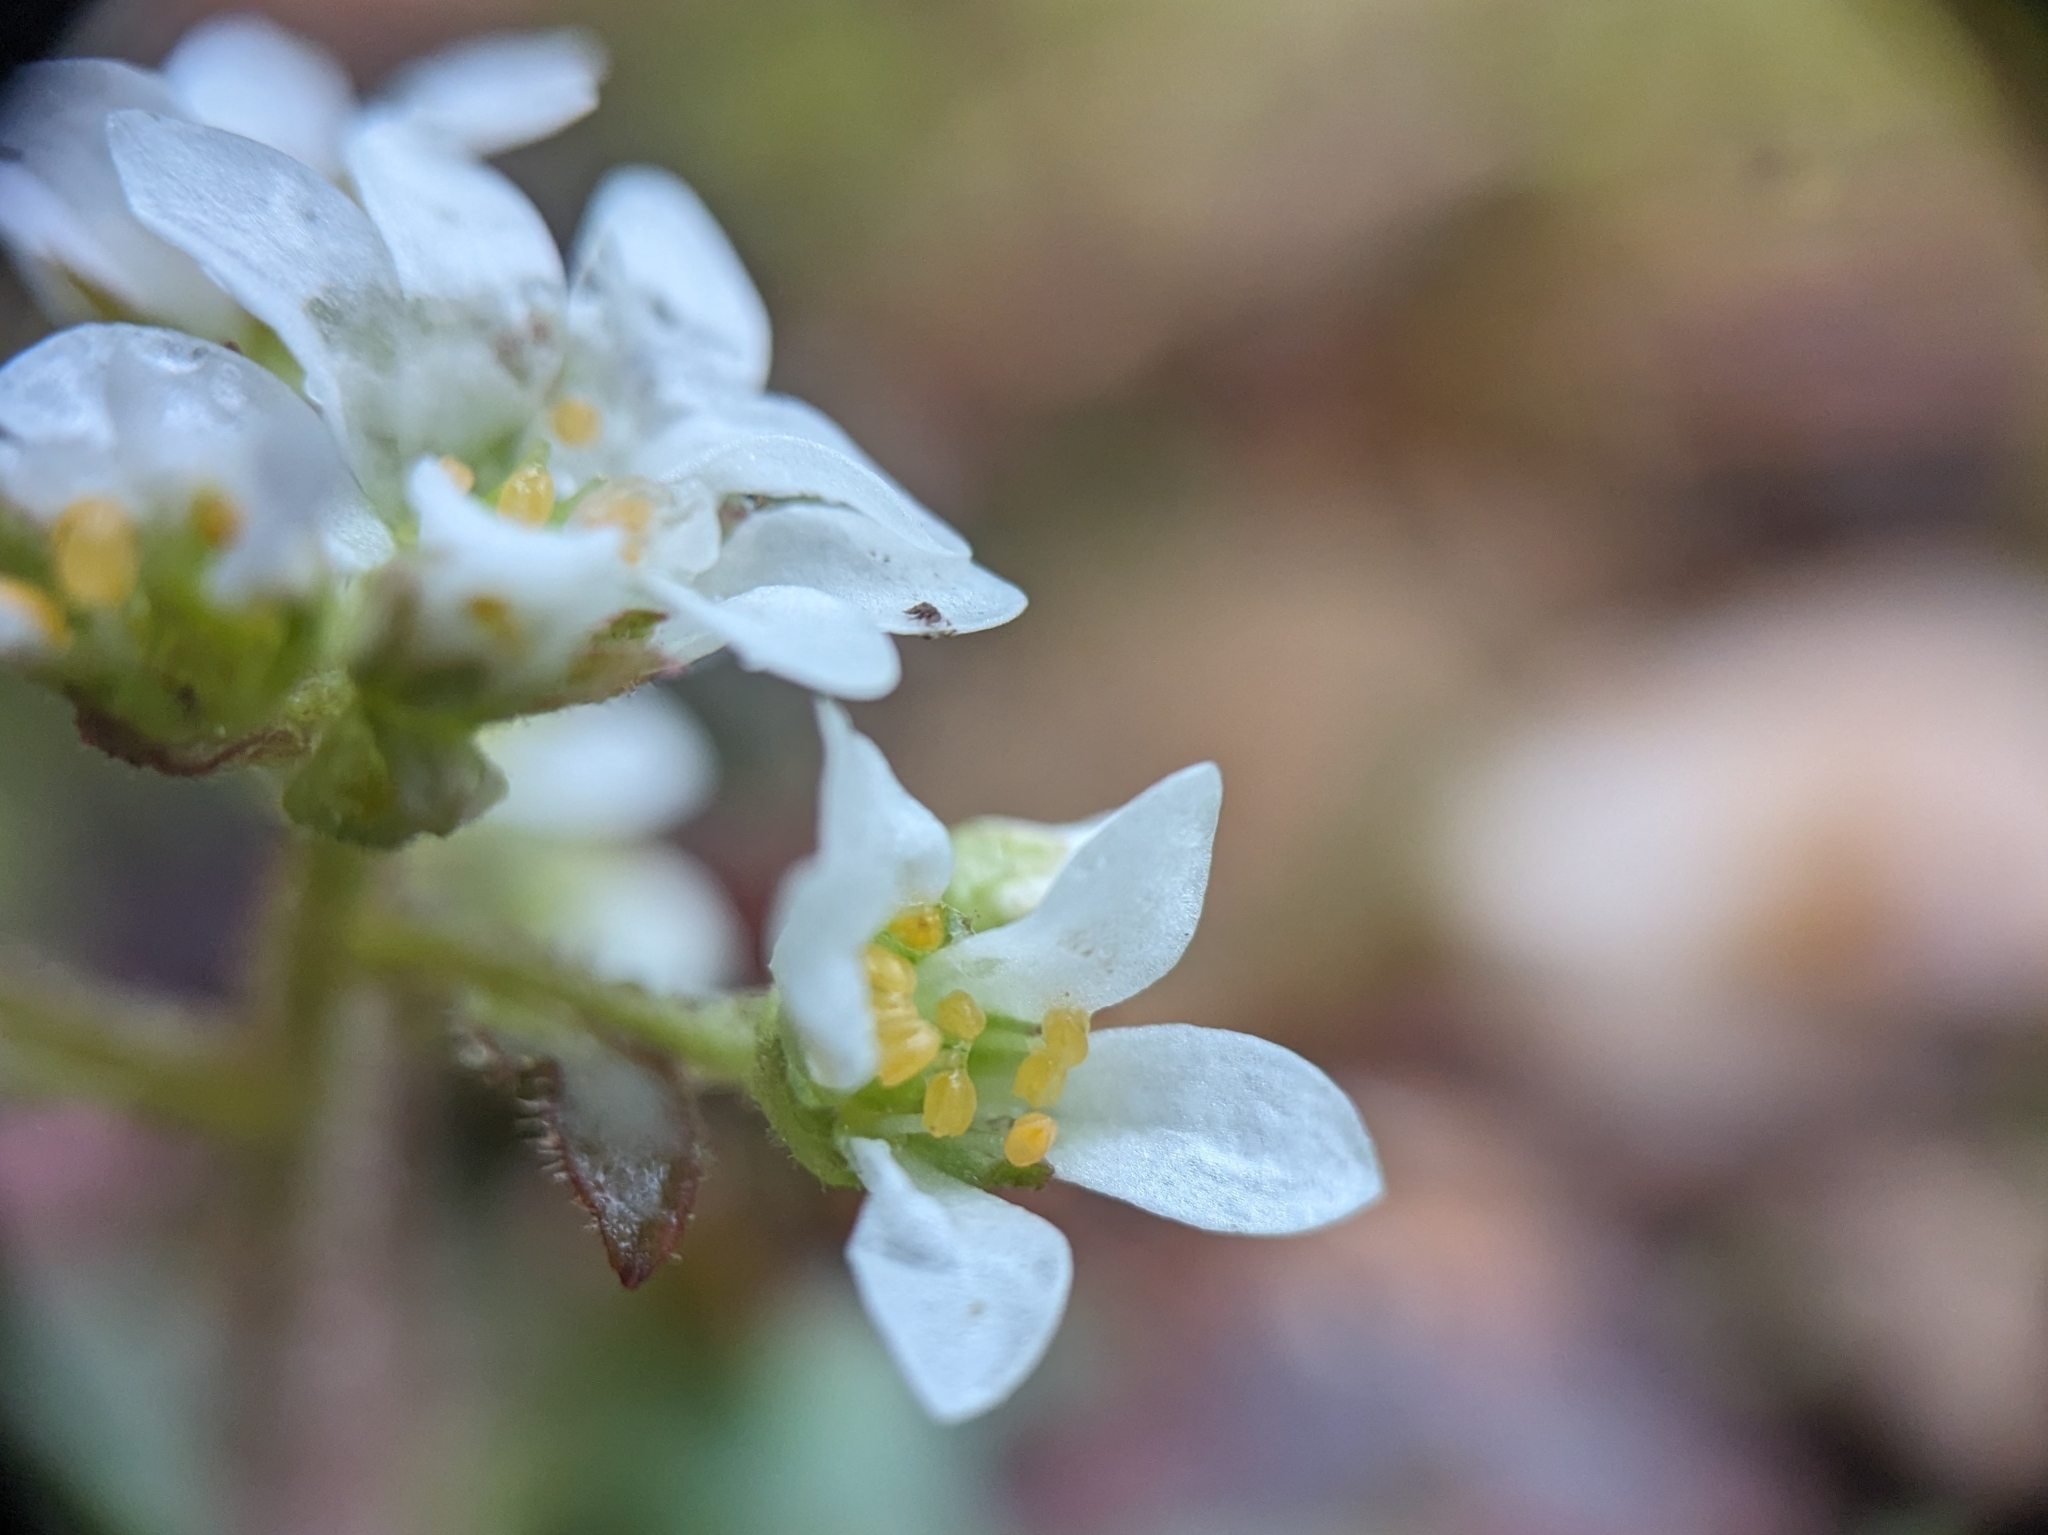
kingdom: Plantae
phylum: Tracheophyta
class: Magnoliopsida
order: Saxifragales
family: Saxifragaceae
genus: Micranthes
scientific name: Micranthes virginiensis
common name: Early saxifrage
